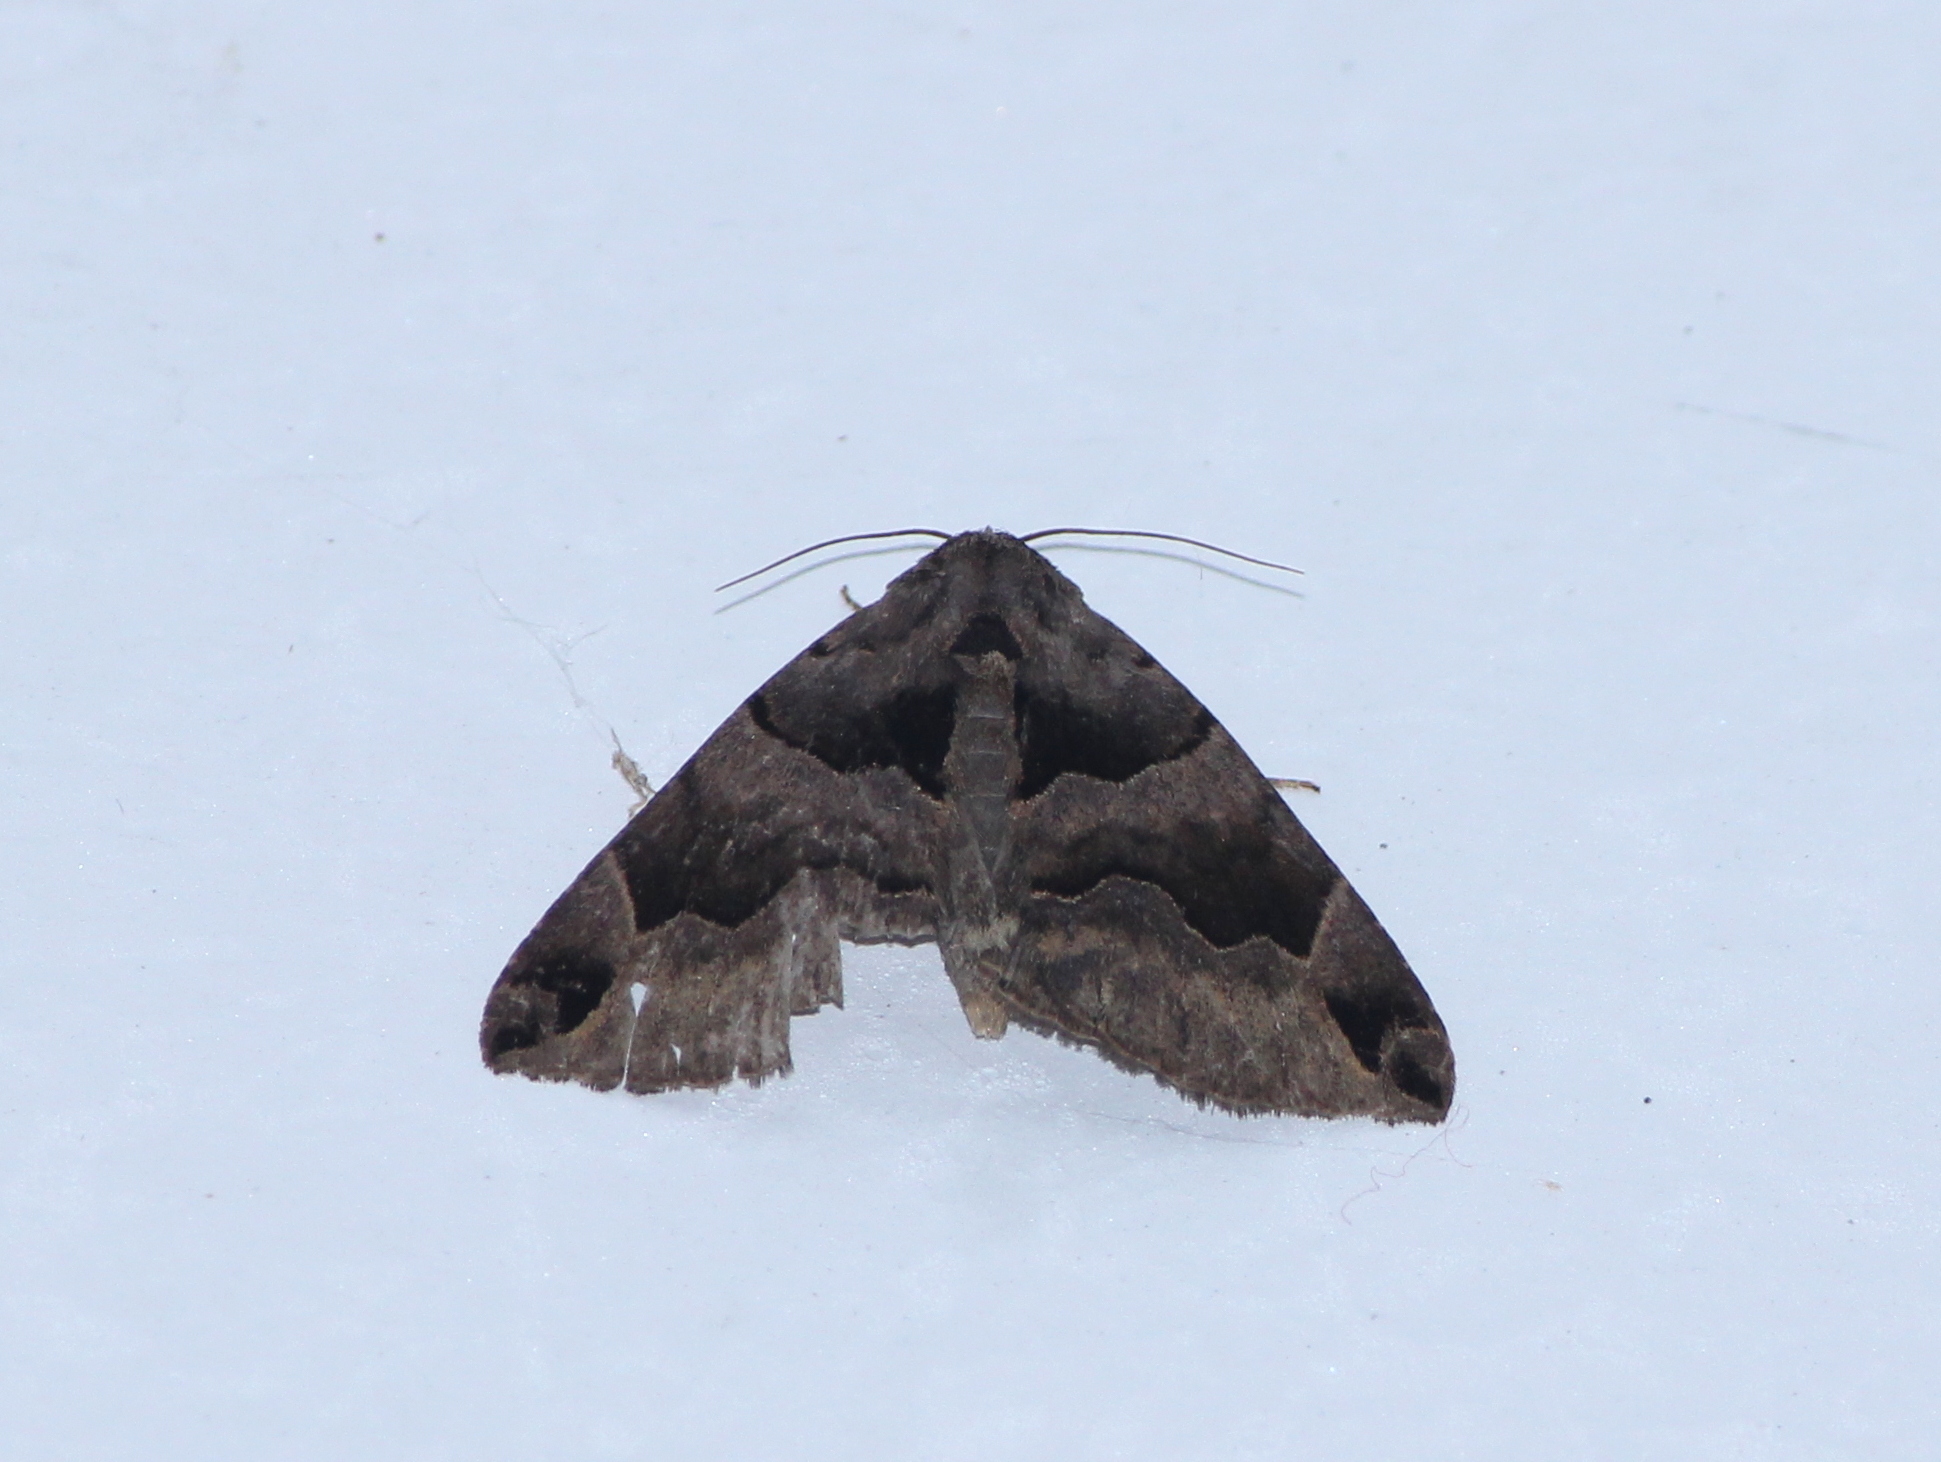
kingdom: Animalia
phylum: Arthropoda
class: Insecta
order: Lepidoptera
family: Erebidae
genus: Dysgonia
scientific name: Dysgonia simillima
